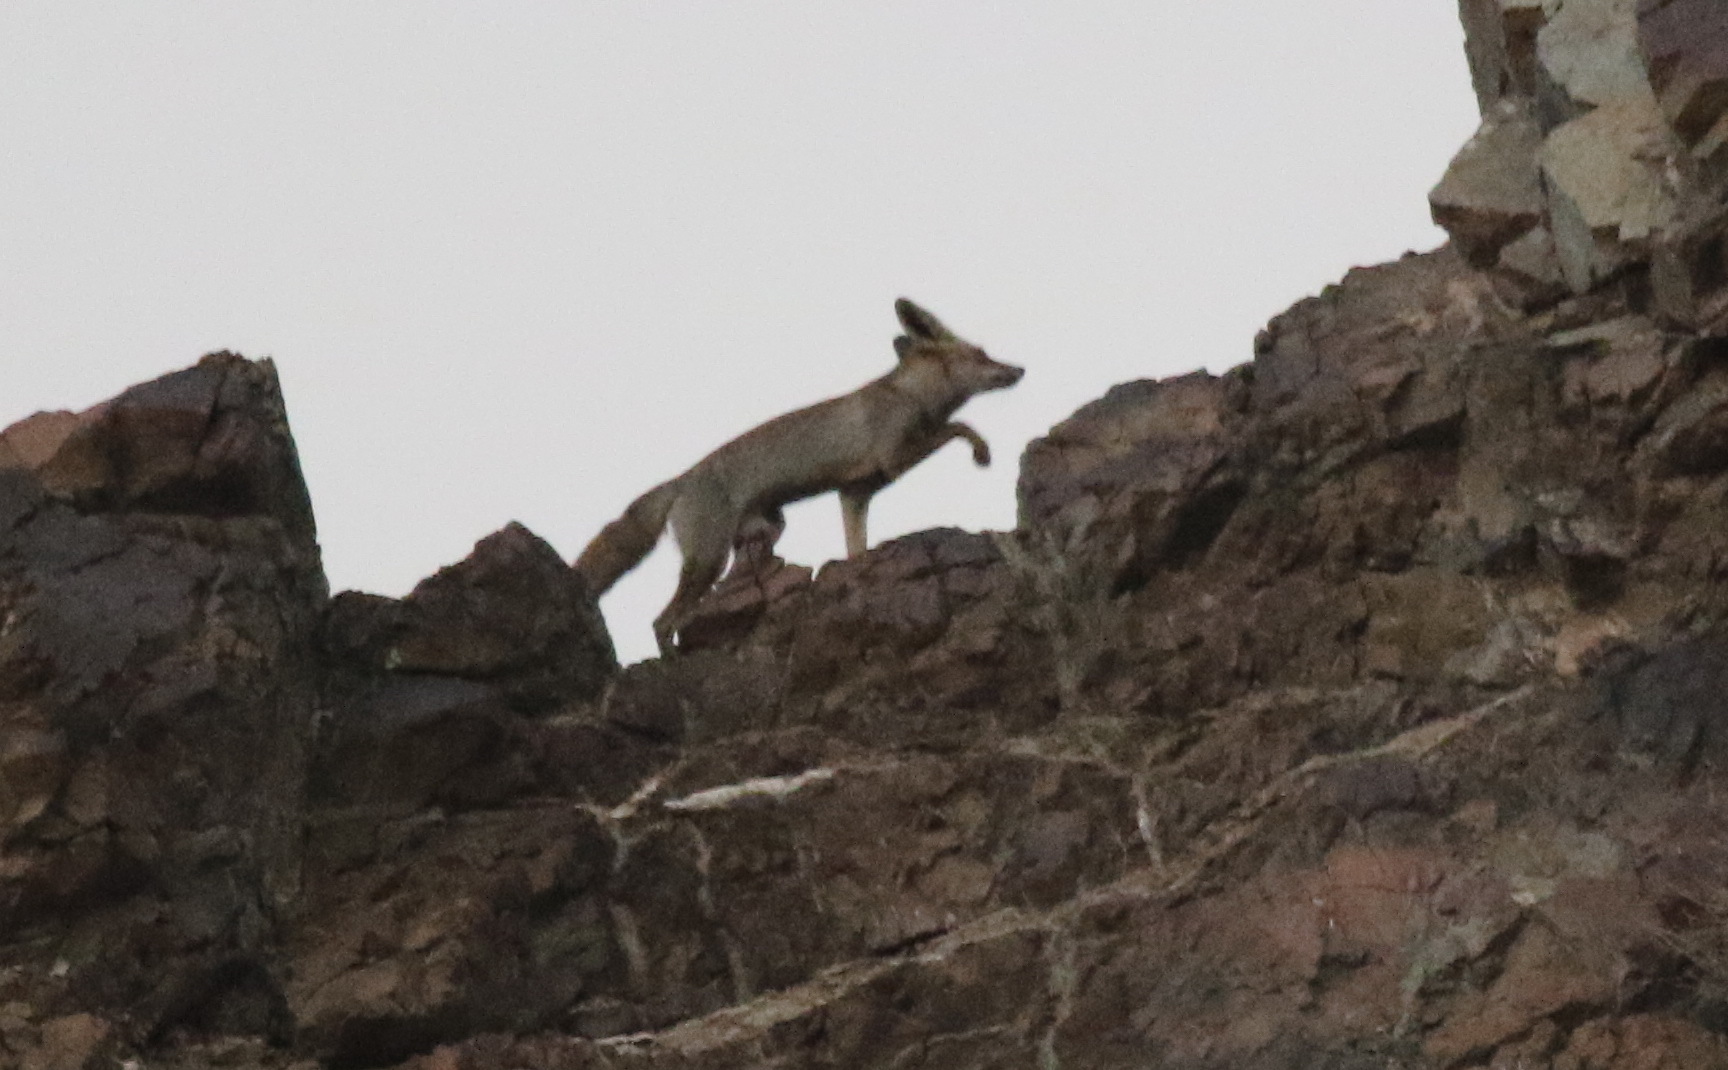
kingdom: Animalia
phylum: Chordata
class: Mammalia
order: Carnivora
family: Canidae
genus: Vulpes
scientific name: Vulpes vulpes
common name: Red fox
